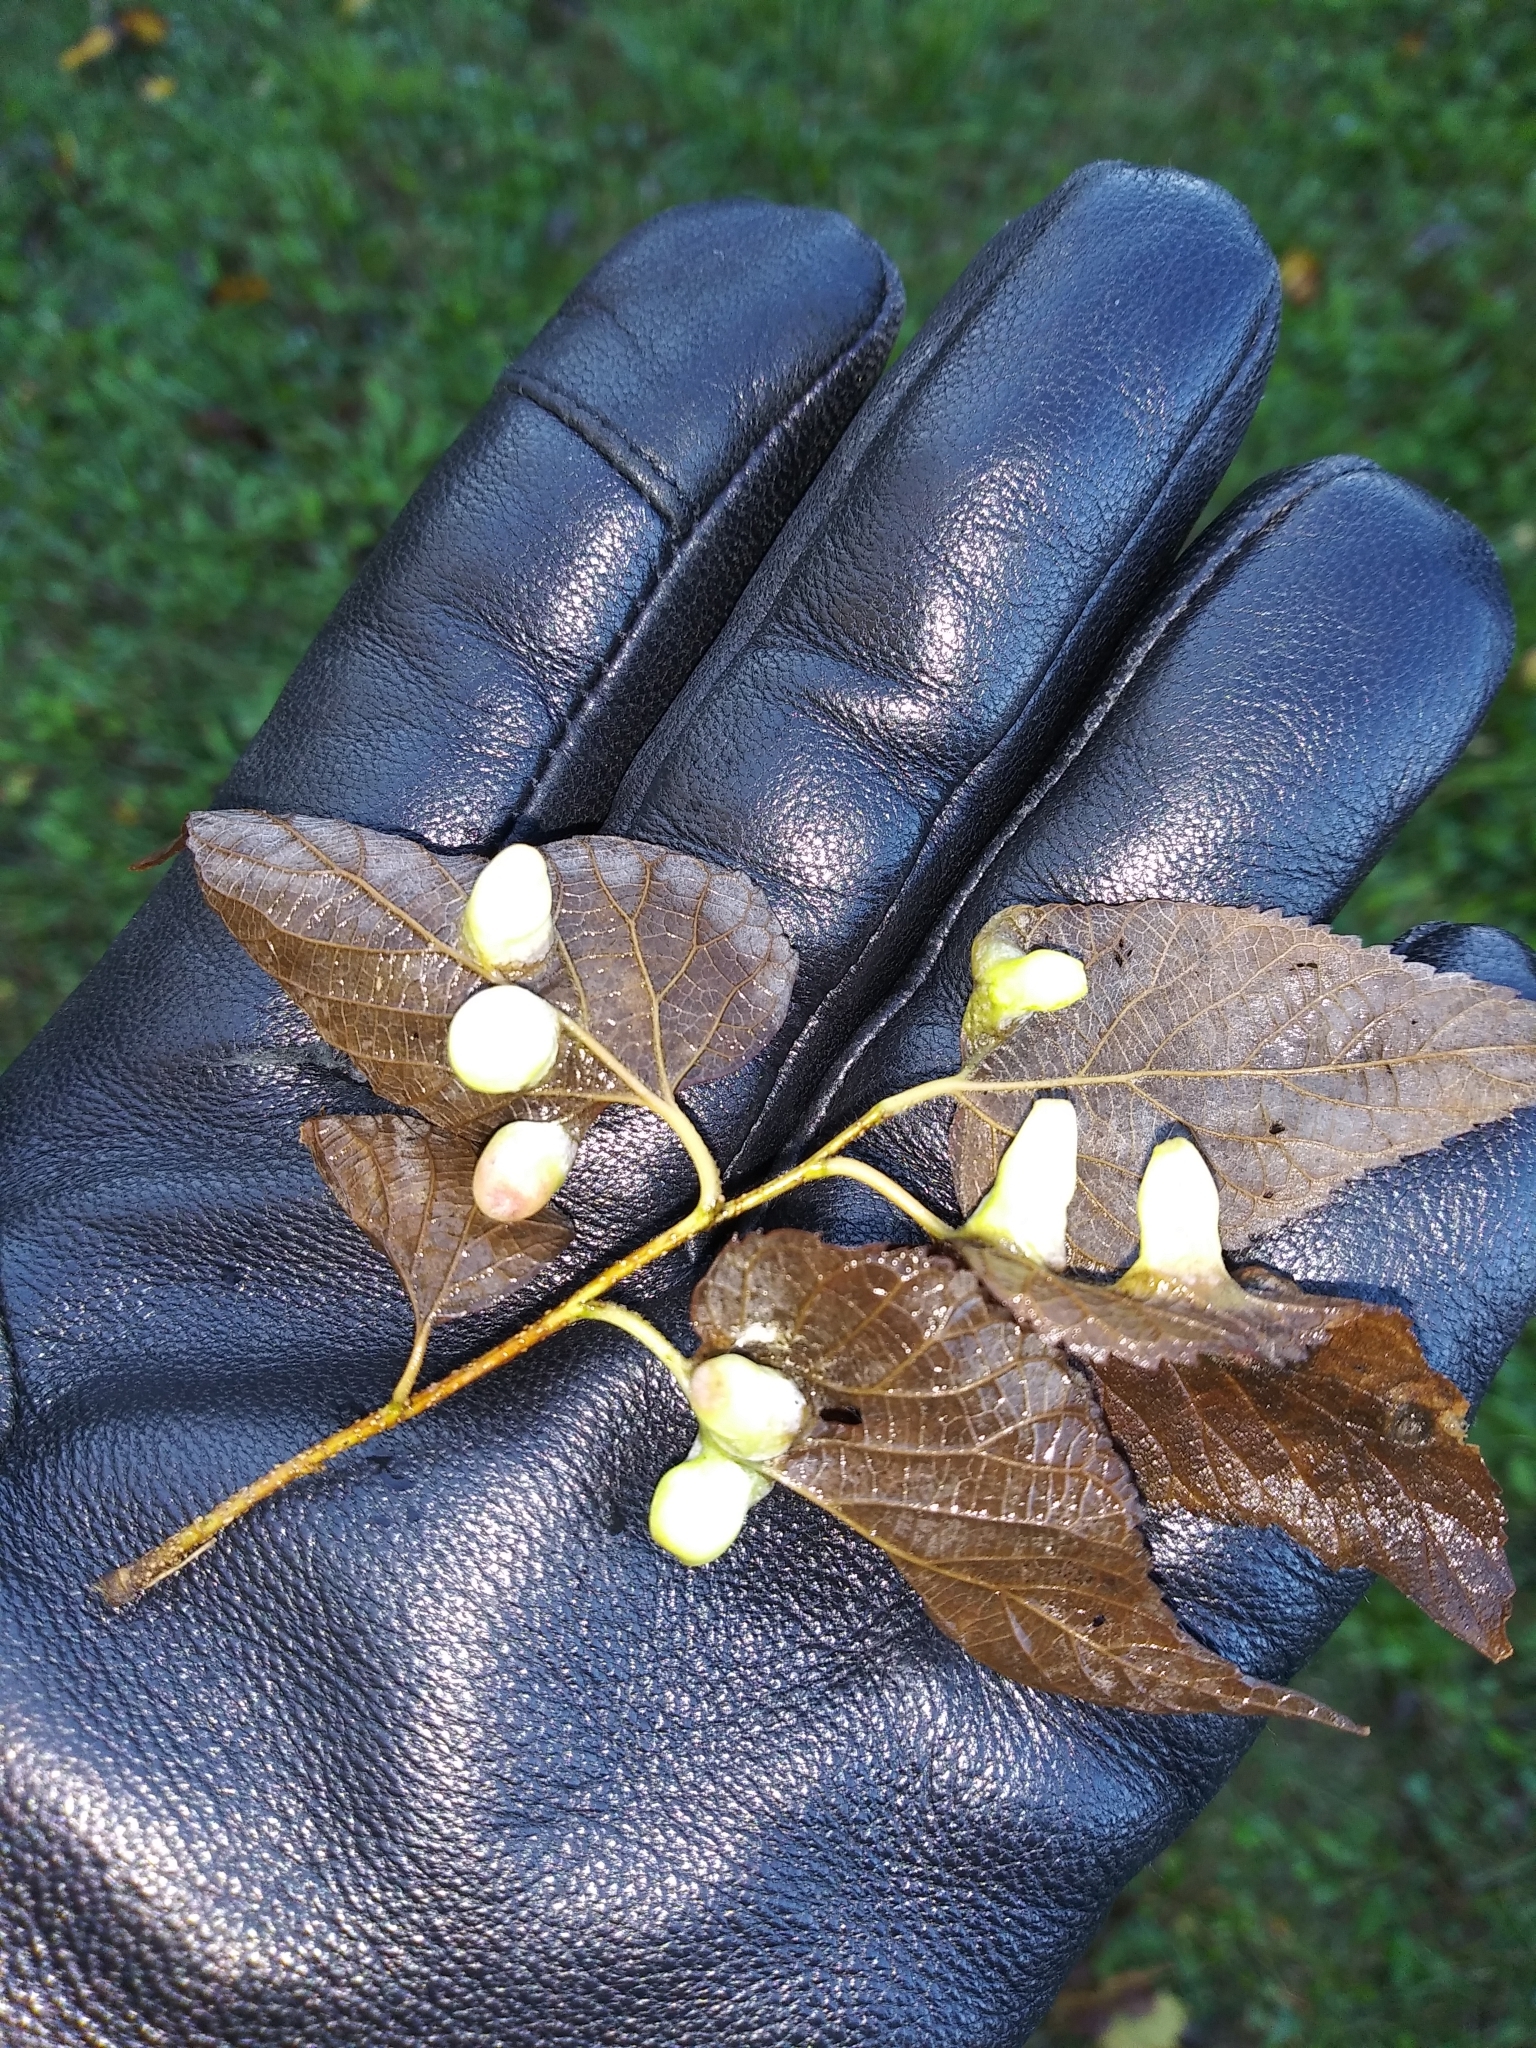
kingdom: Animalia
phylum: Arthropoda
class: Insecta
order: Hemiptera
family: Aphalaridae
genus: Pachypsylla
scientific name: Pachypsylla celtidismamma
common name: Hackberry nipplegall psyllid
